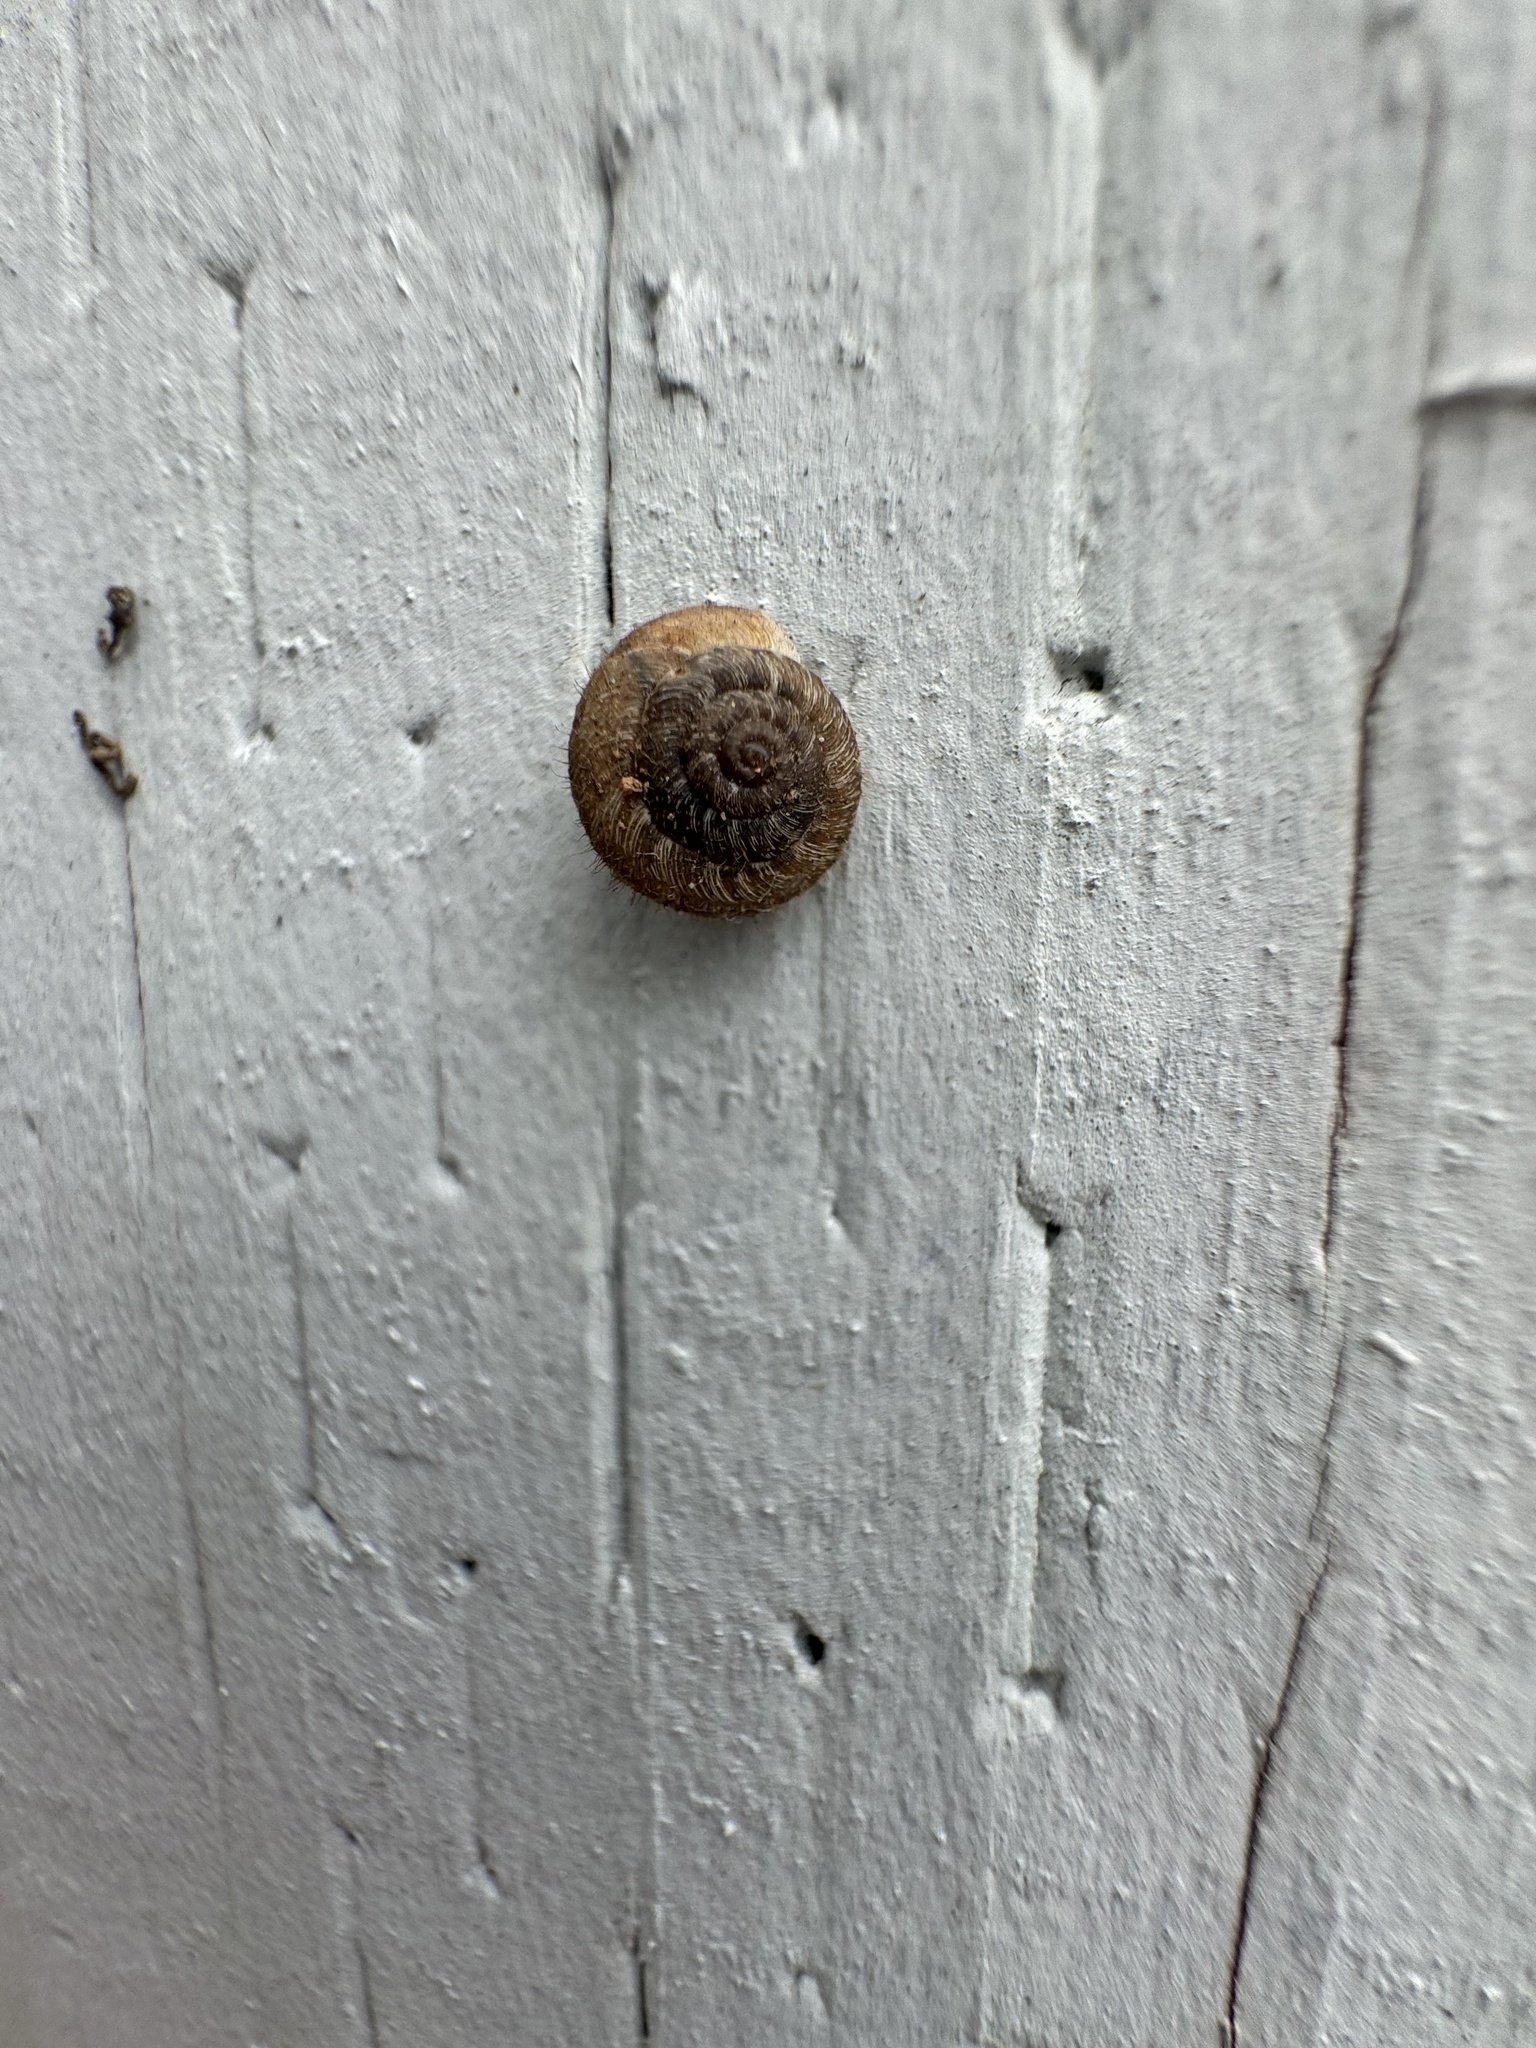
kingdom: Animalia
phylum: Mollusca
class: Gastropoda
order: Stylommatophora
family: Geomitridae
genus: Xerotricha
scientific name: Xerotricha conspurcata
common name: Snail
